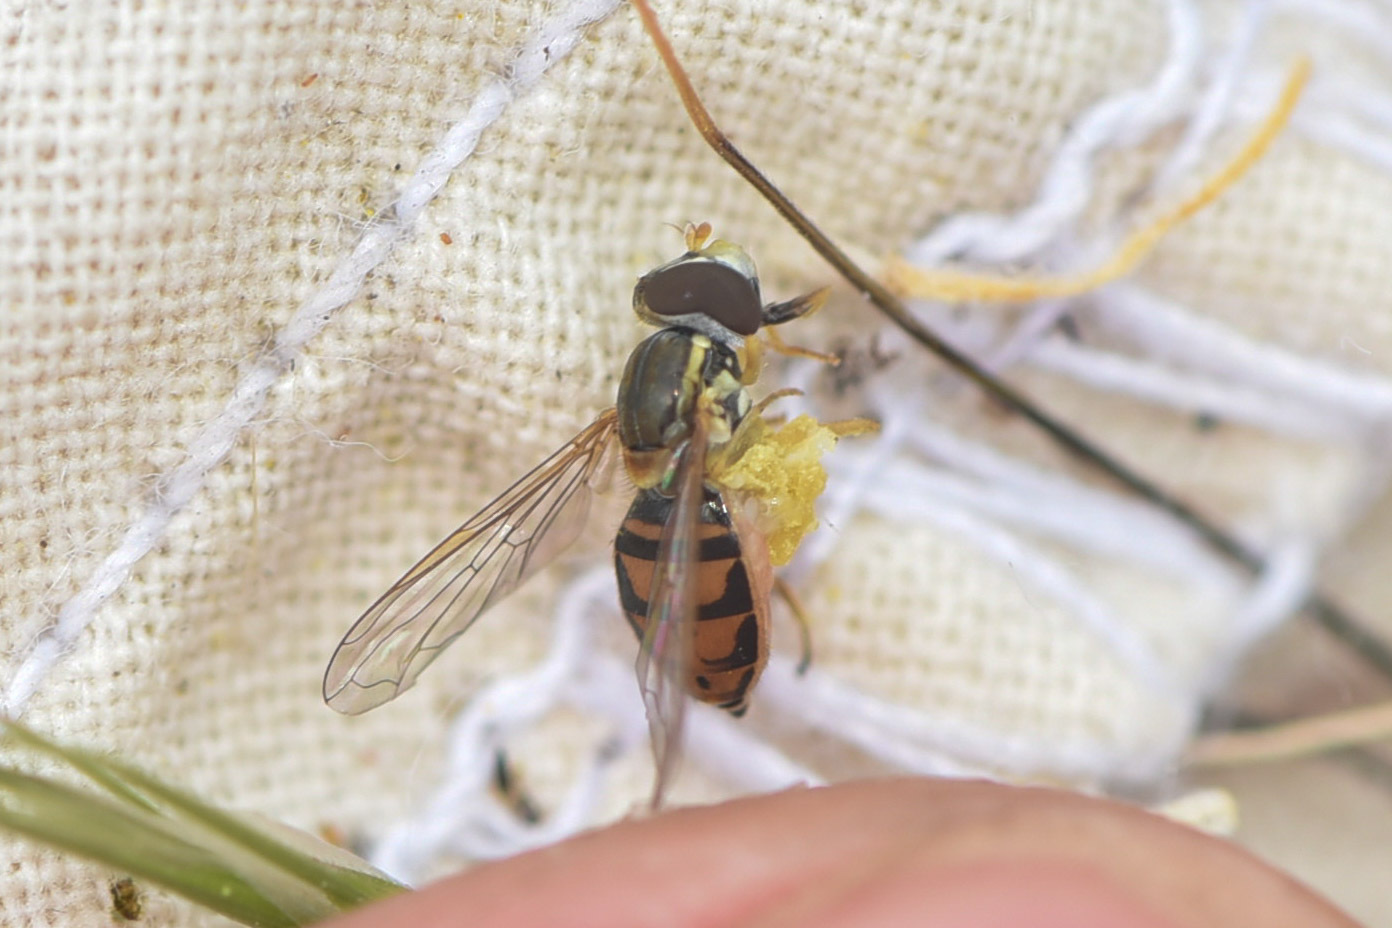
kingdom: Animalia
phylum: Arthropoda
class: Insecta
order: Diptera
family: Syrphidae
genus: Toxomerus
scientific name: Toxomerus marginatus
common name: Syrphid fly
